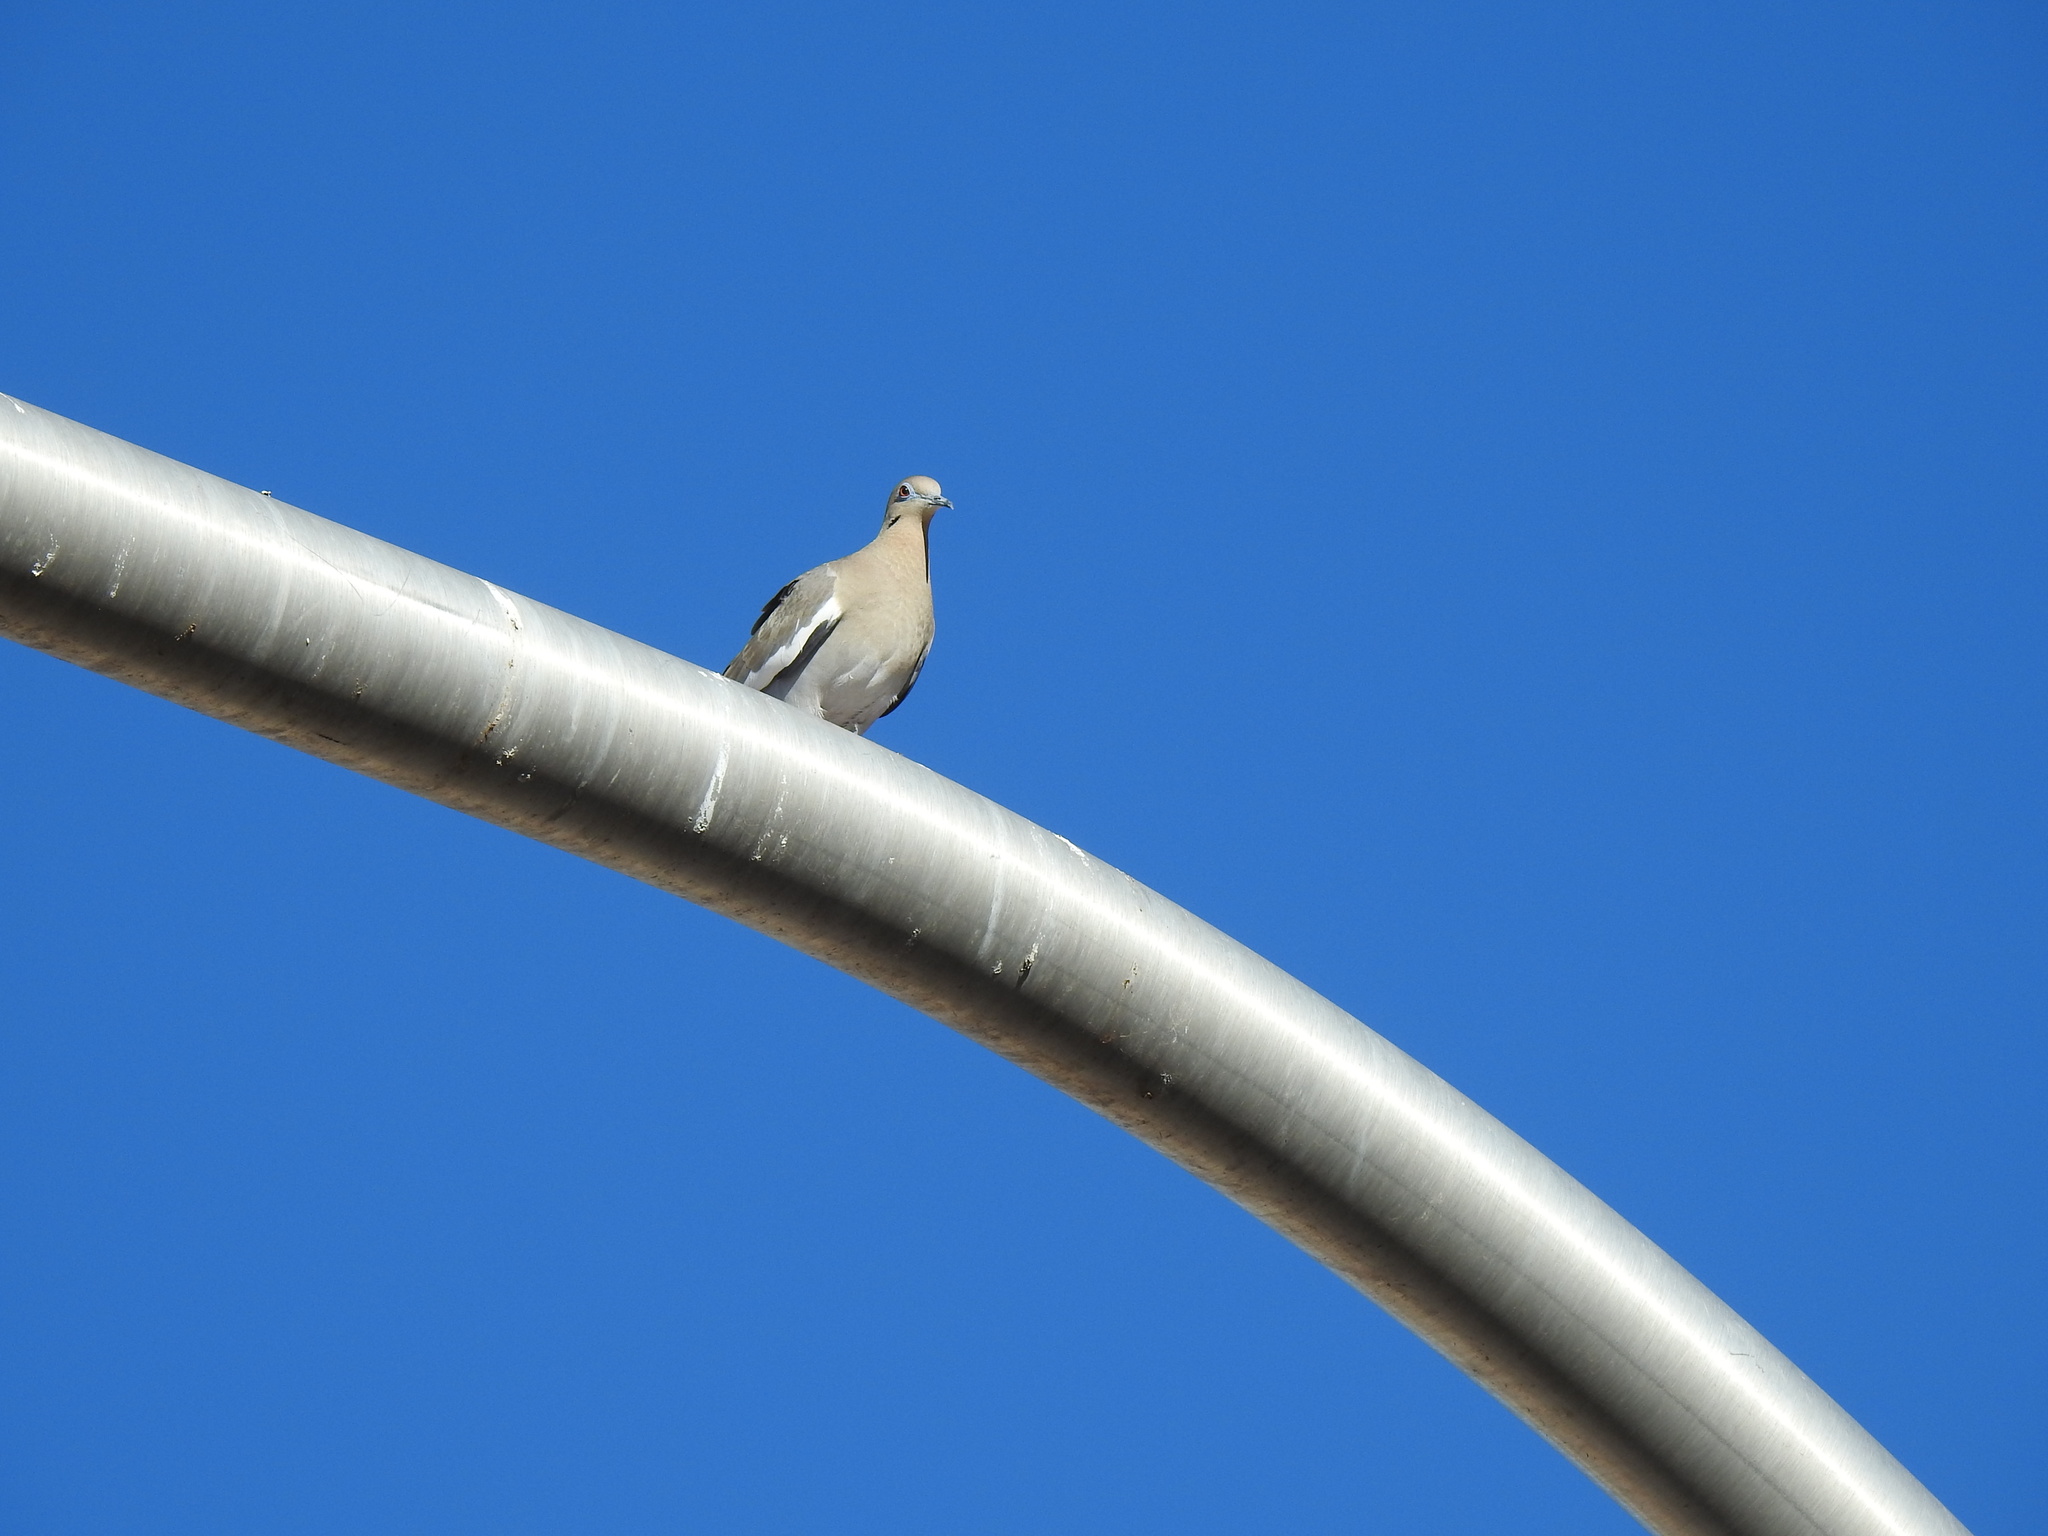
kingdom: Animalia
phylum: Chordata
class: Aves
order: Columbiformes
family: Columbidae
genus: Zenaida
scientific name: Zenaida asiatica
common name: White-winged dove
